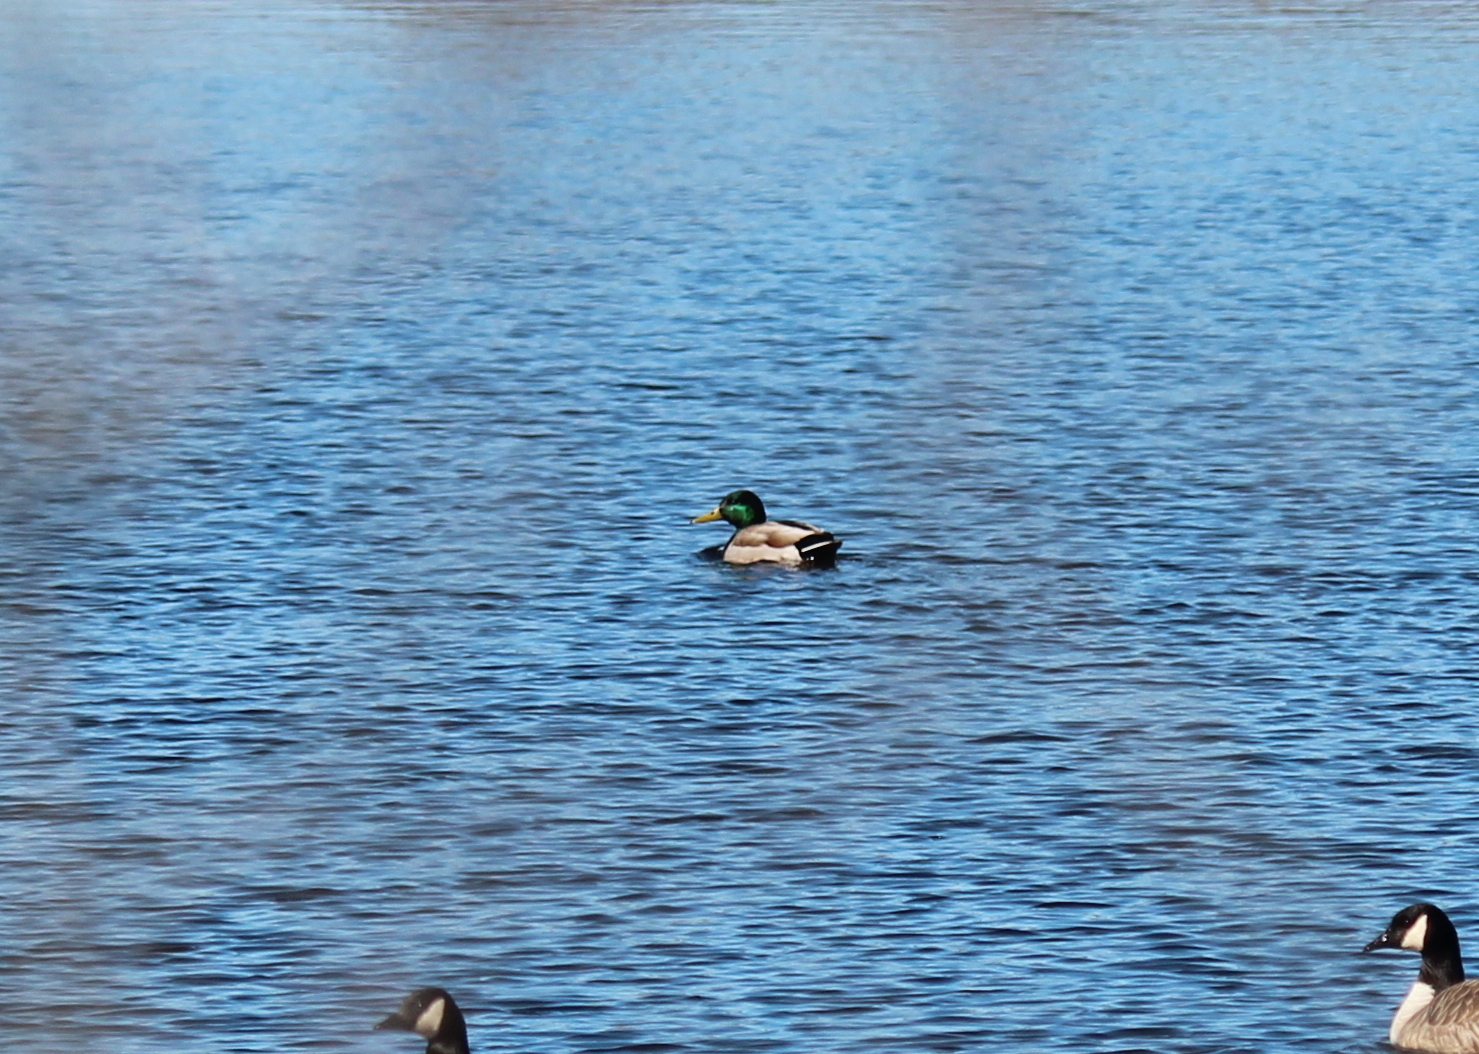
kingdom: Animalia
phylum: Chordata
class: Aves
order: Anseriformes
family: Anatidae
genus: Anas
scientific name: Anas platyrhynchos
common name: Mallard
